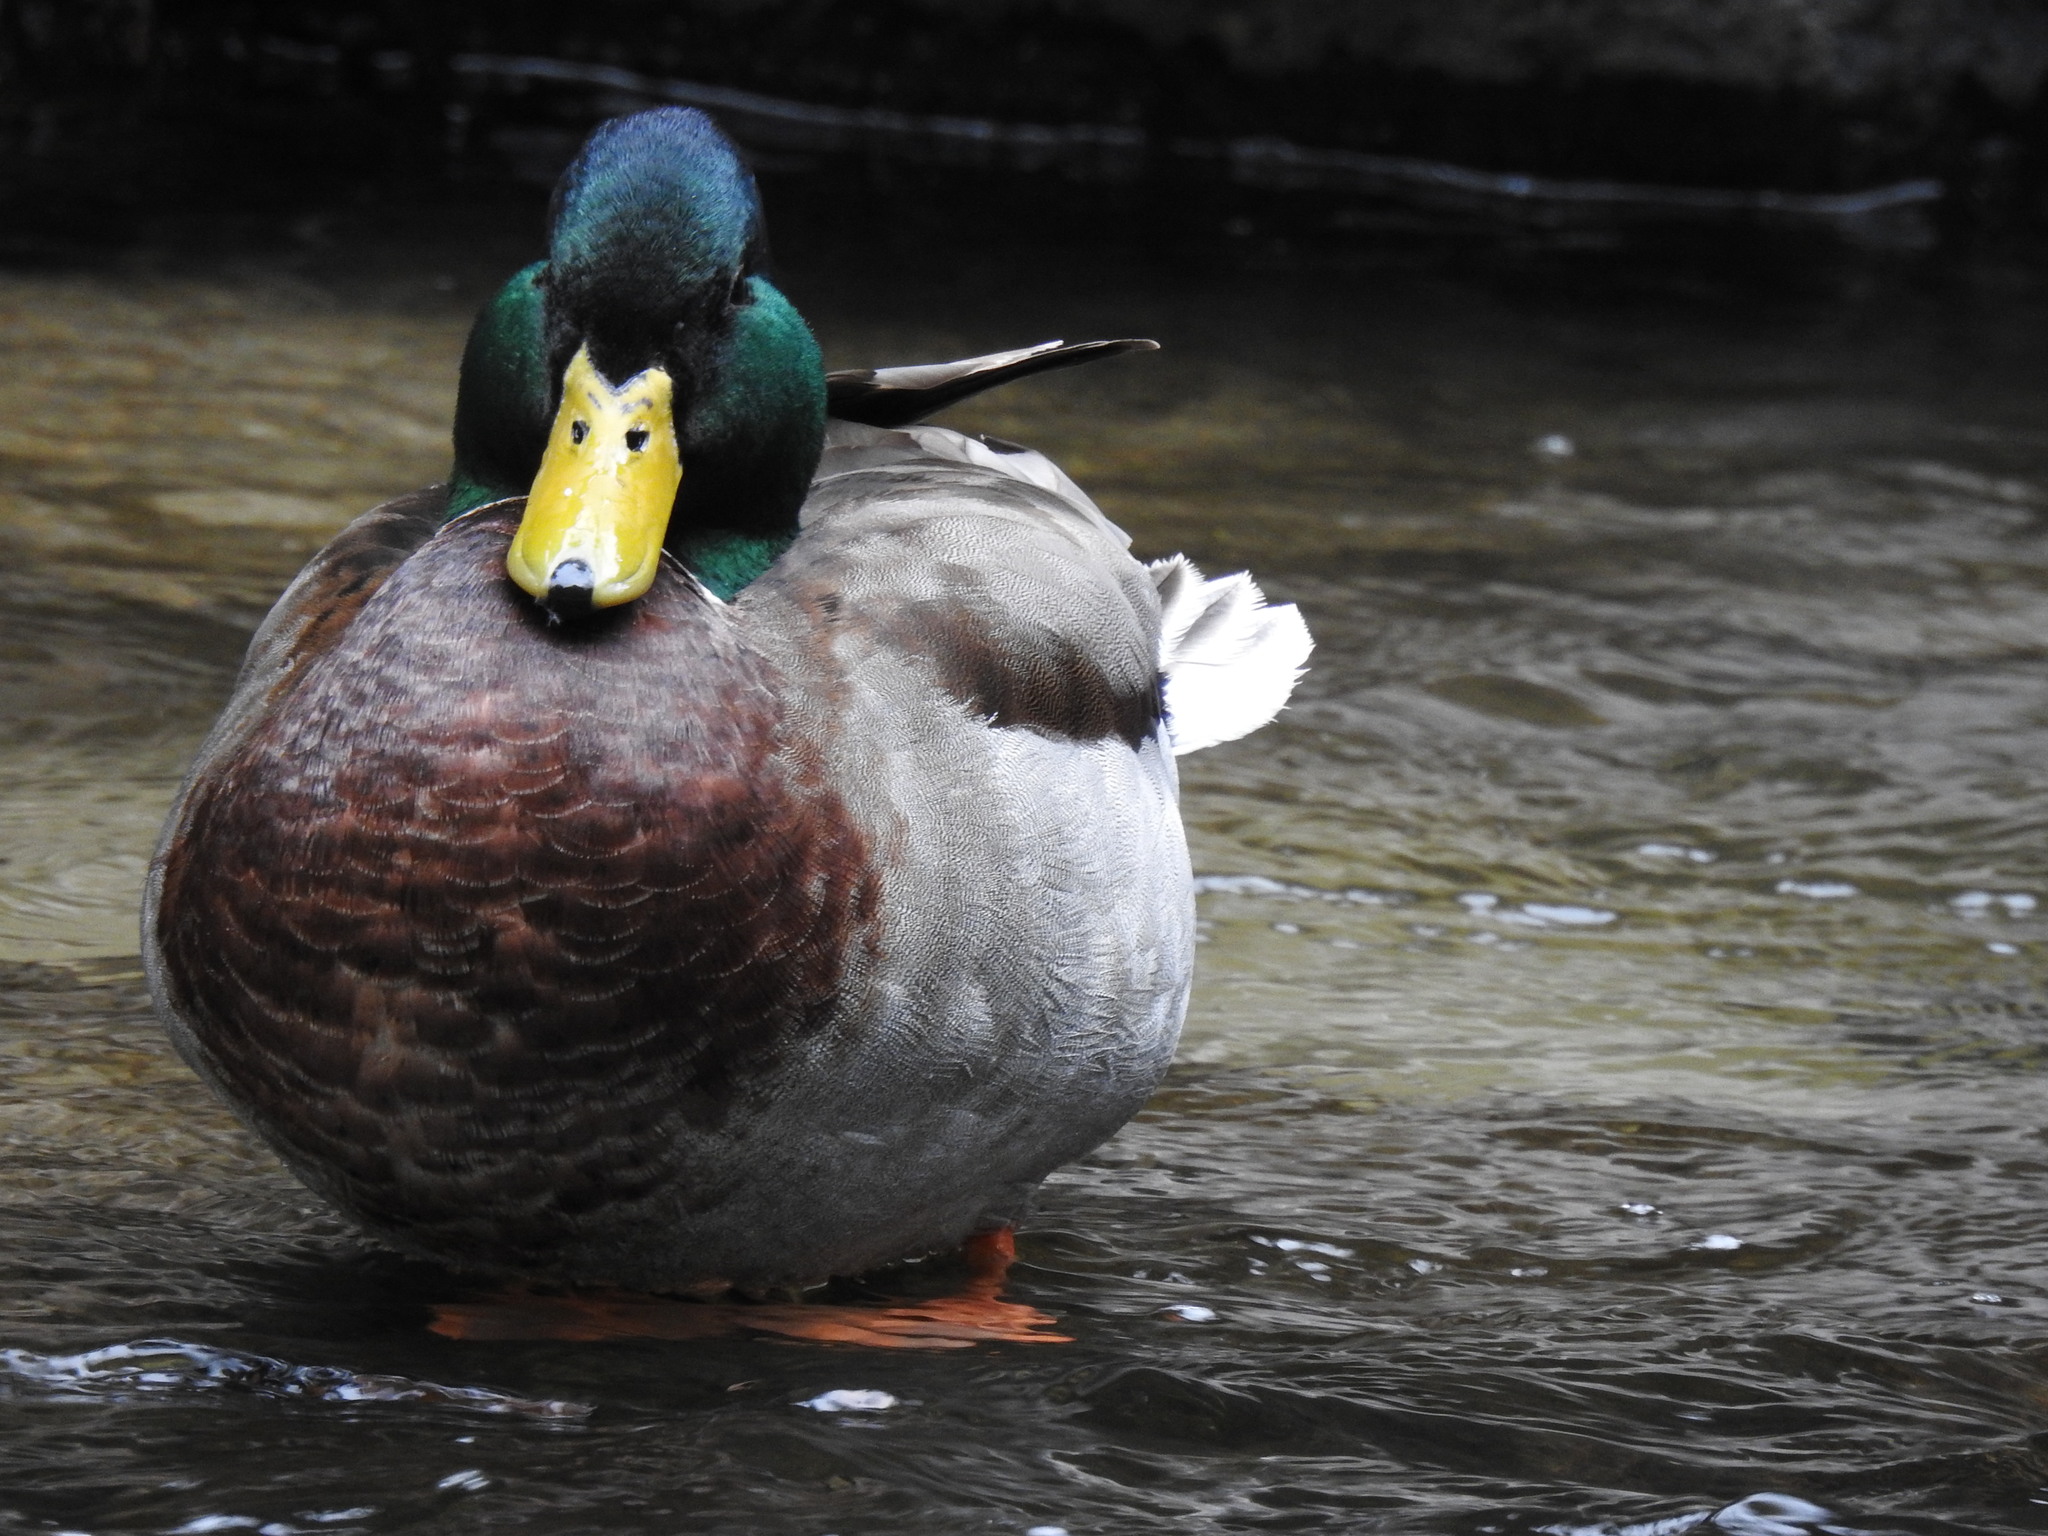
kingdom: Animalia
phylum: Chordata
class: Aves
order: Anseriformes
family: Anatidae
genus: Anas
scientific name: Anas platyrhynchos
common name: Mallard
